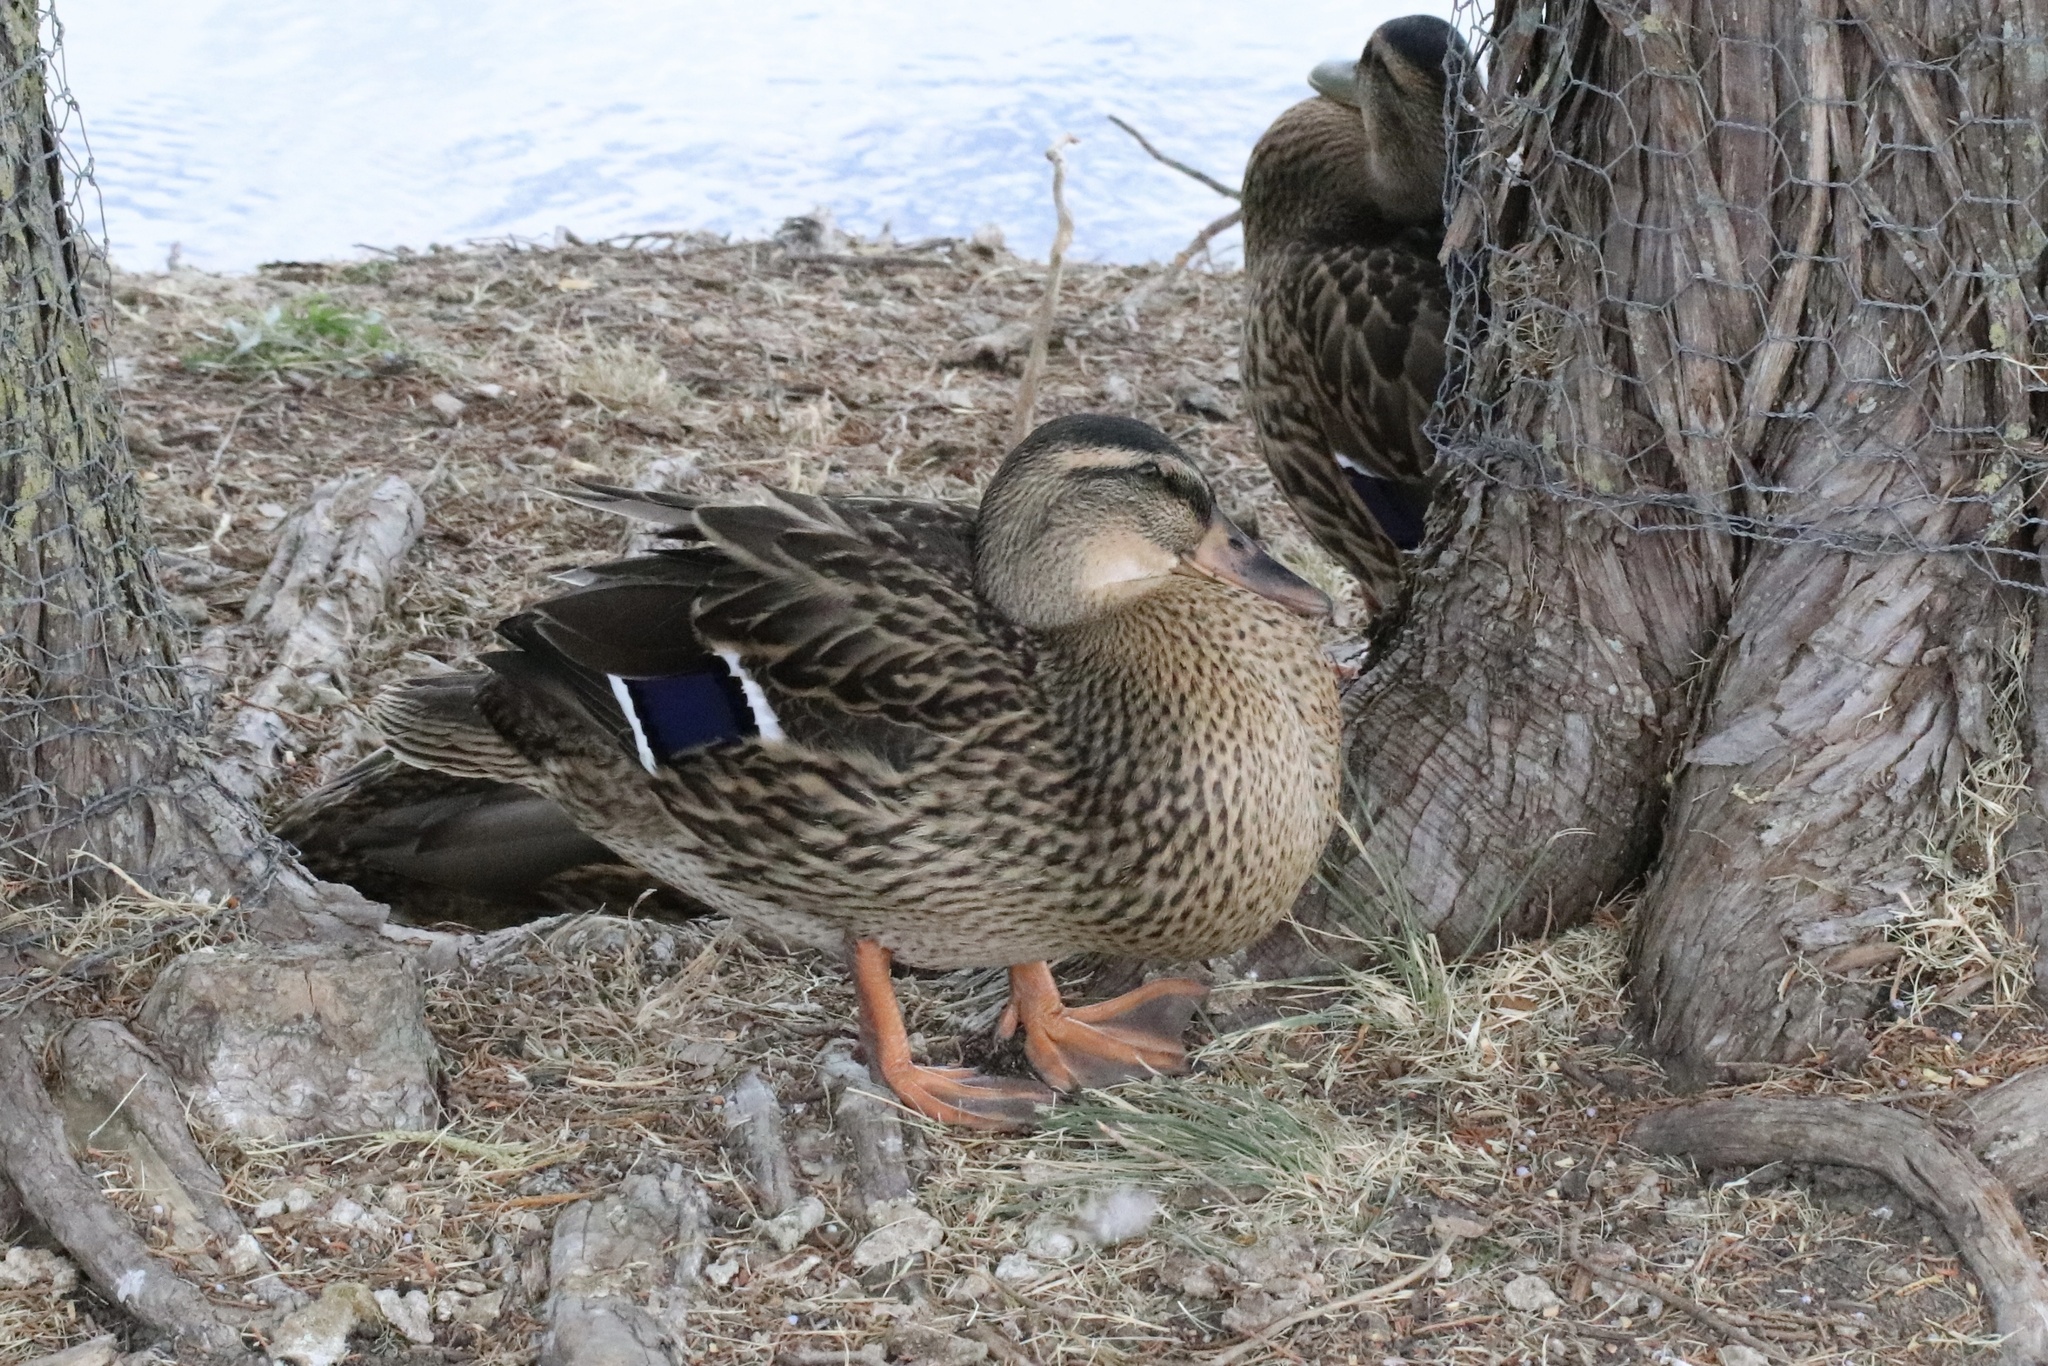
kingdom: Animalia
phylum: Chordata
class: Aves
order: Anseriformes
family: Anatidae
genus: Anas
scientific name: Anas platyrhynchos
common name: Mallard
